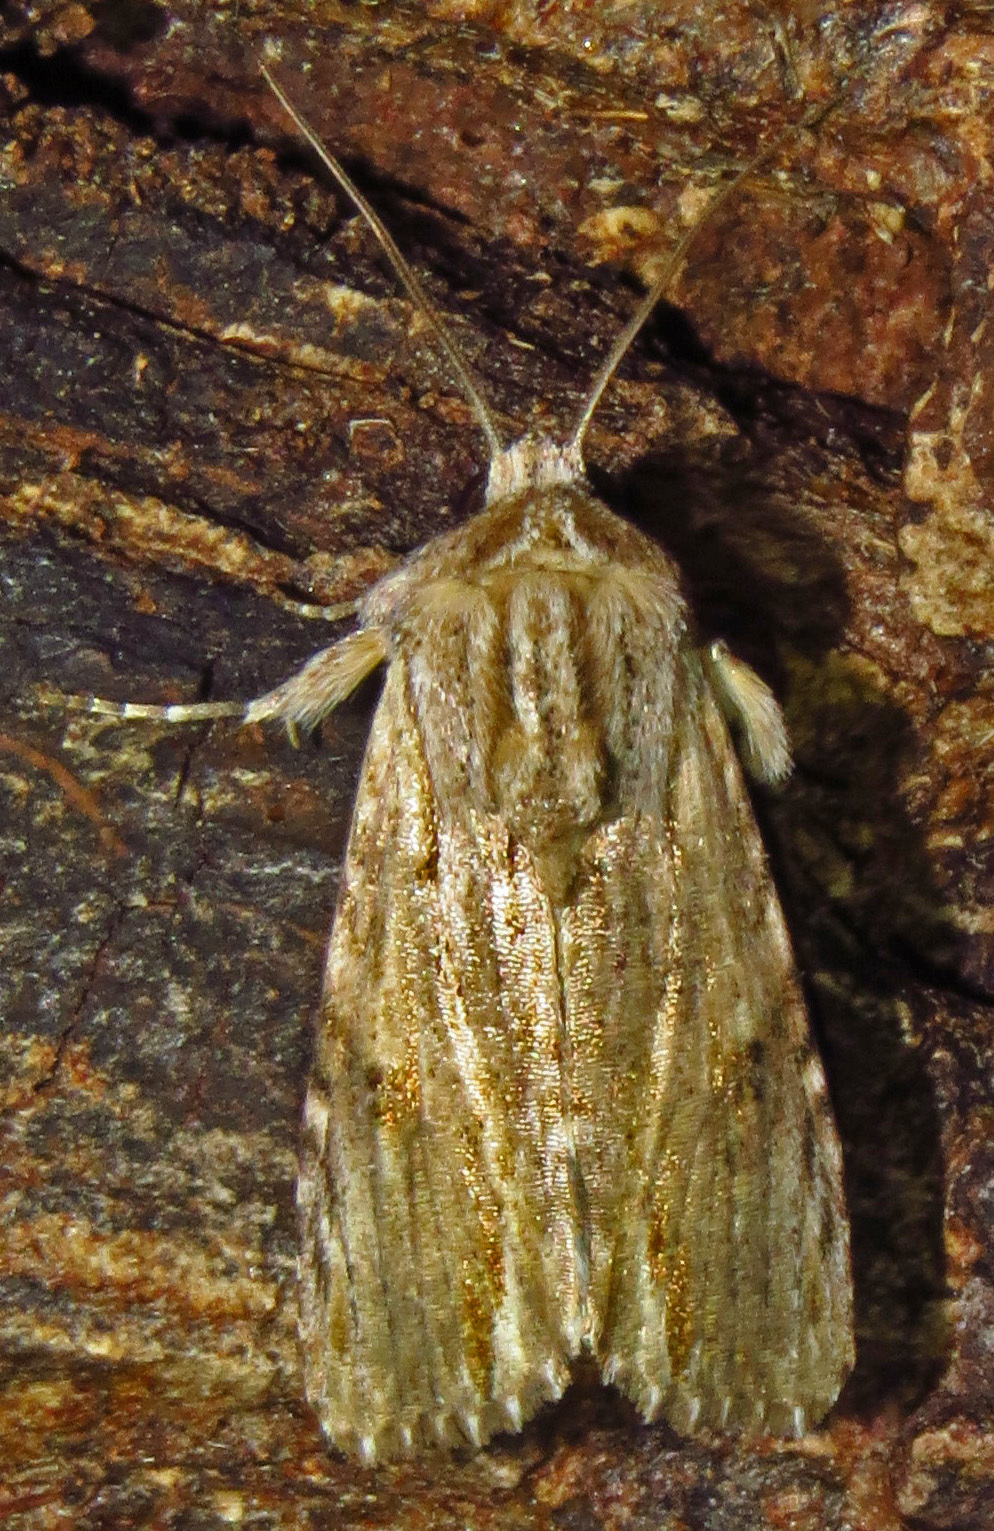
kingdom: Animalia
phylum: Arthropoda
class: Insecta
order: Lepidoptera
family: Noctuidae
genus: Spodoptera
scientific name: Spodoptera eridania
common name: Southern army worm
